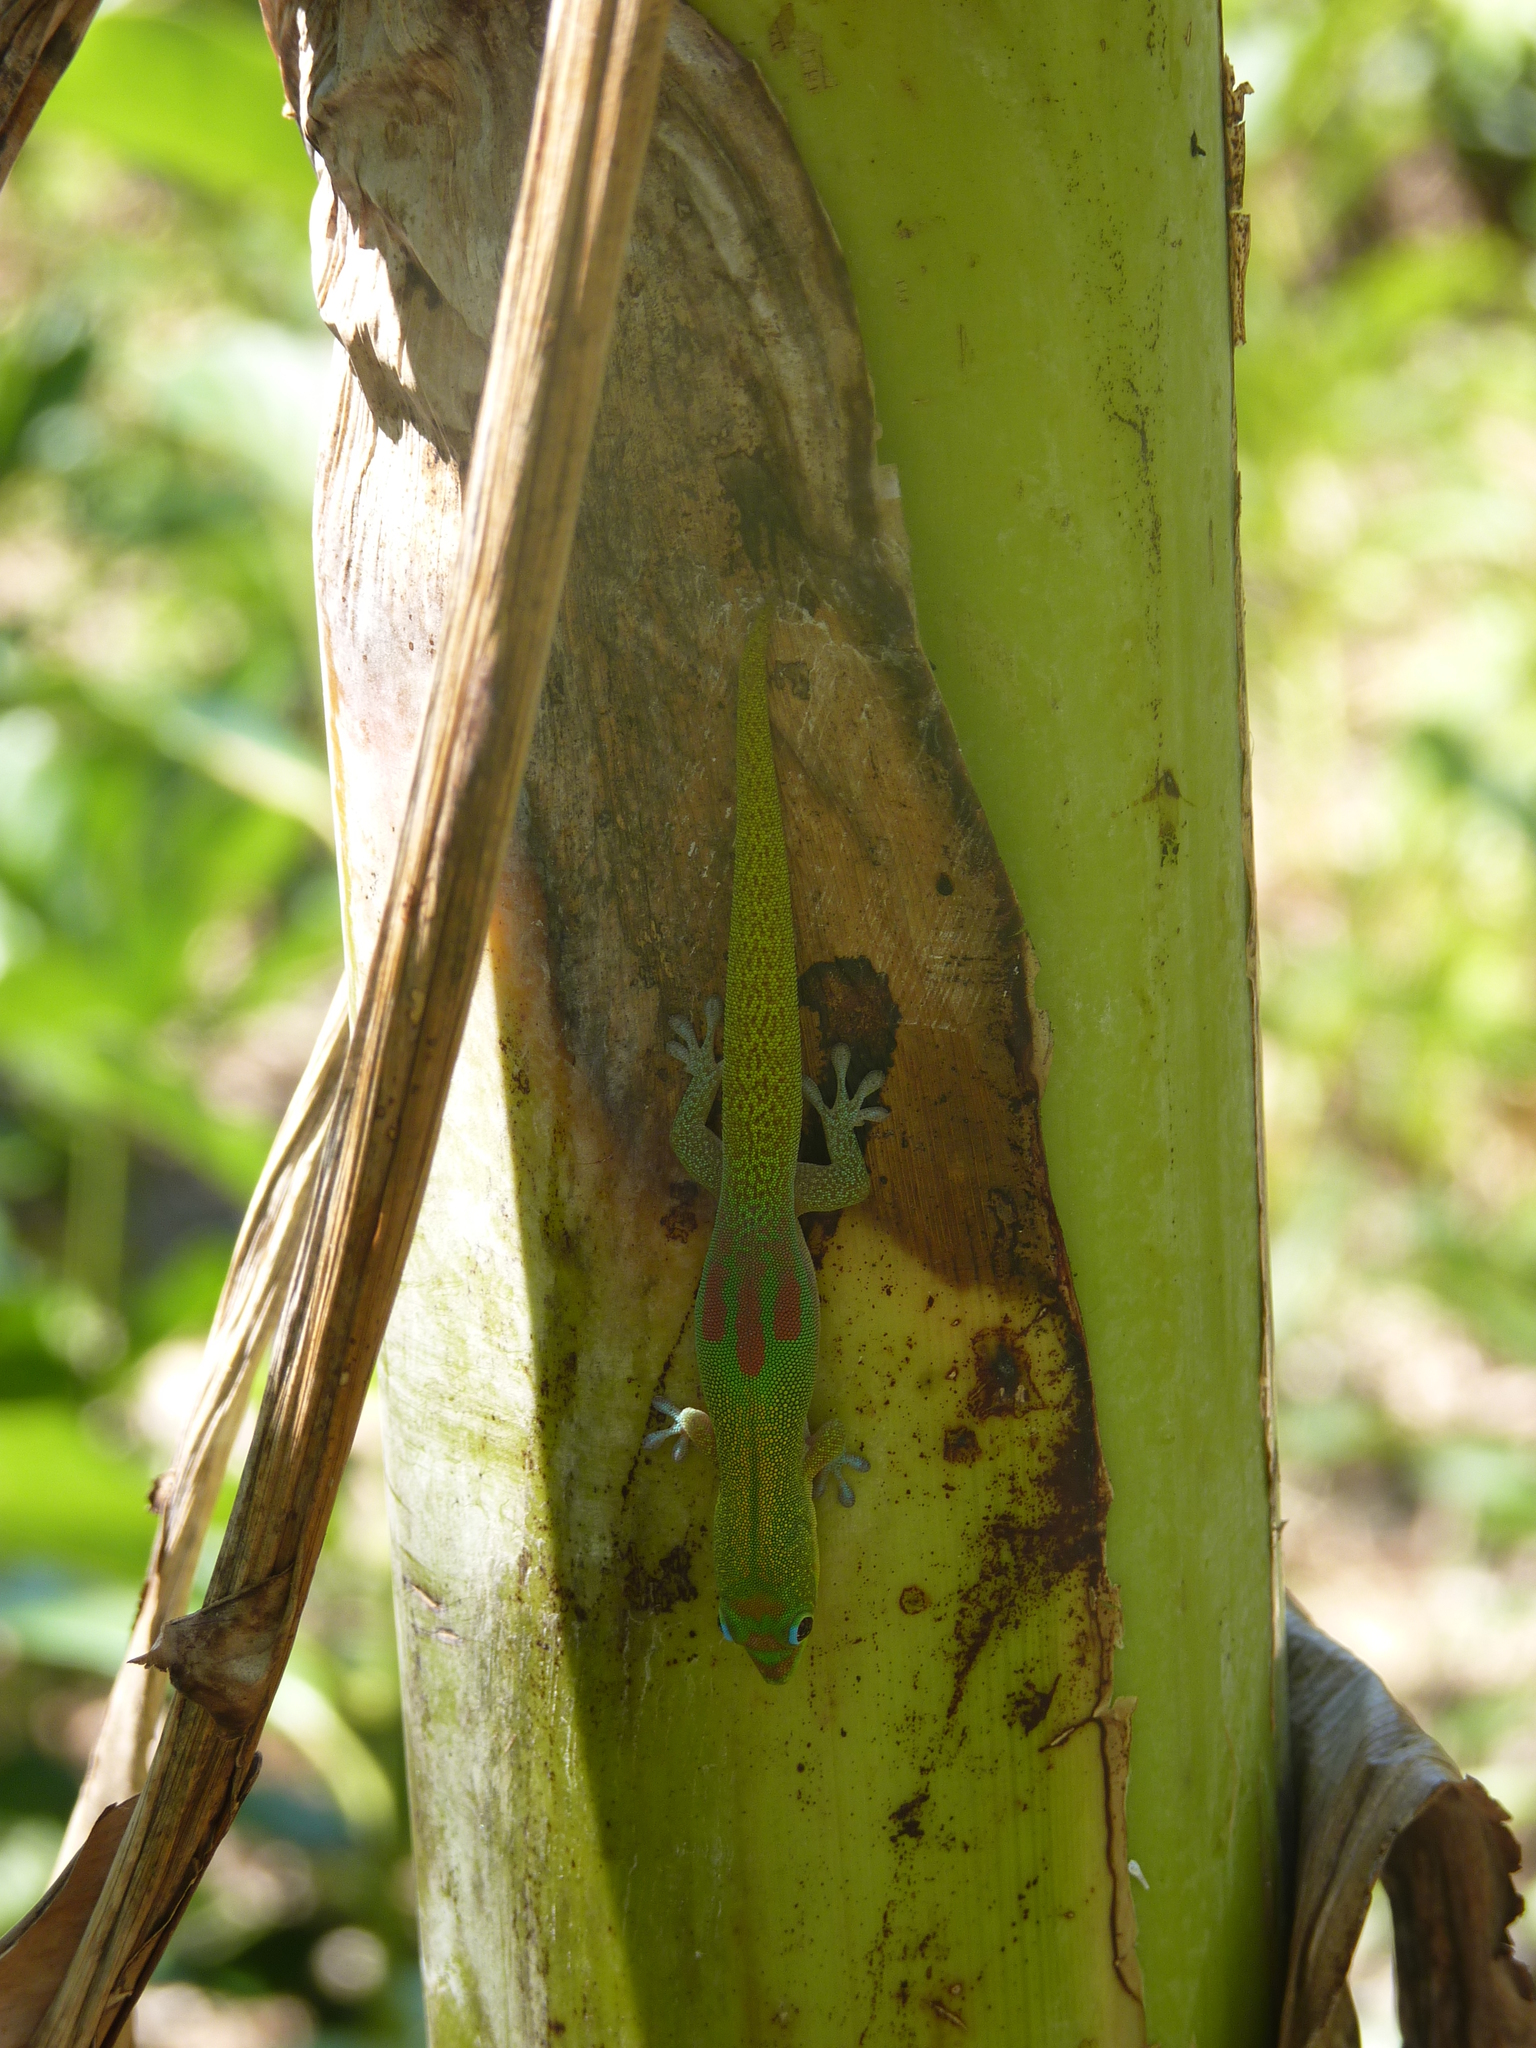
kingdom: Animalia
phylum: Chordata
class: Squamata
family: Gekkonidae
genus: Phelsuma
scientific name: Phelsuma laticauda
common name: Gold dust day gecko
